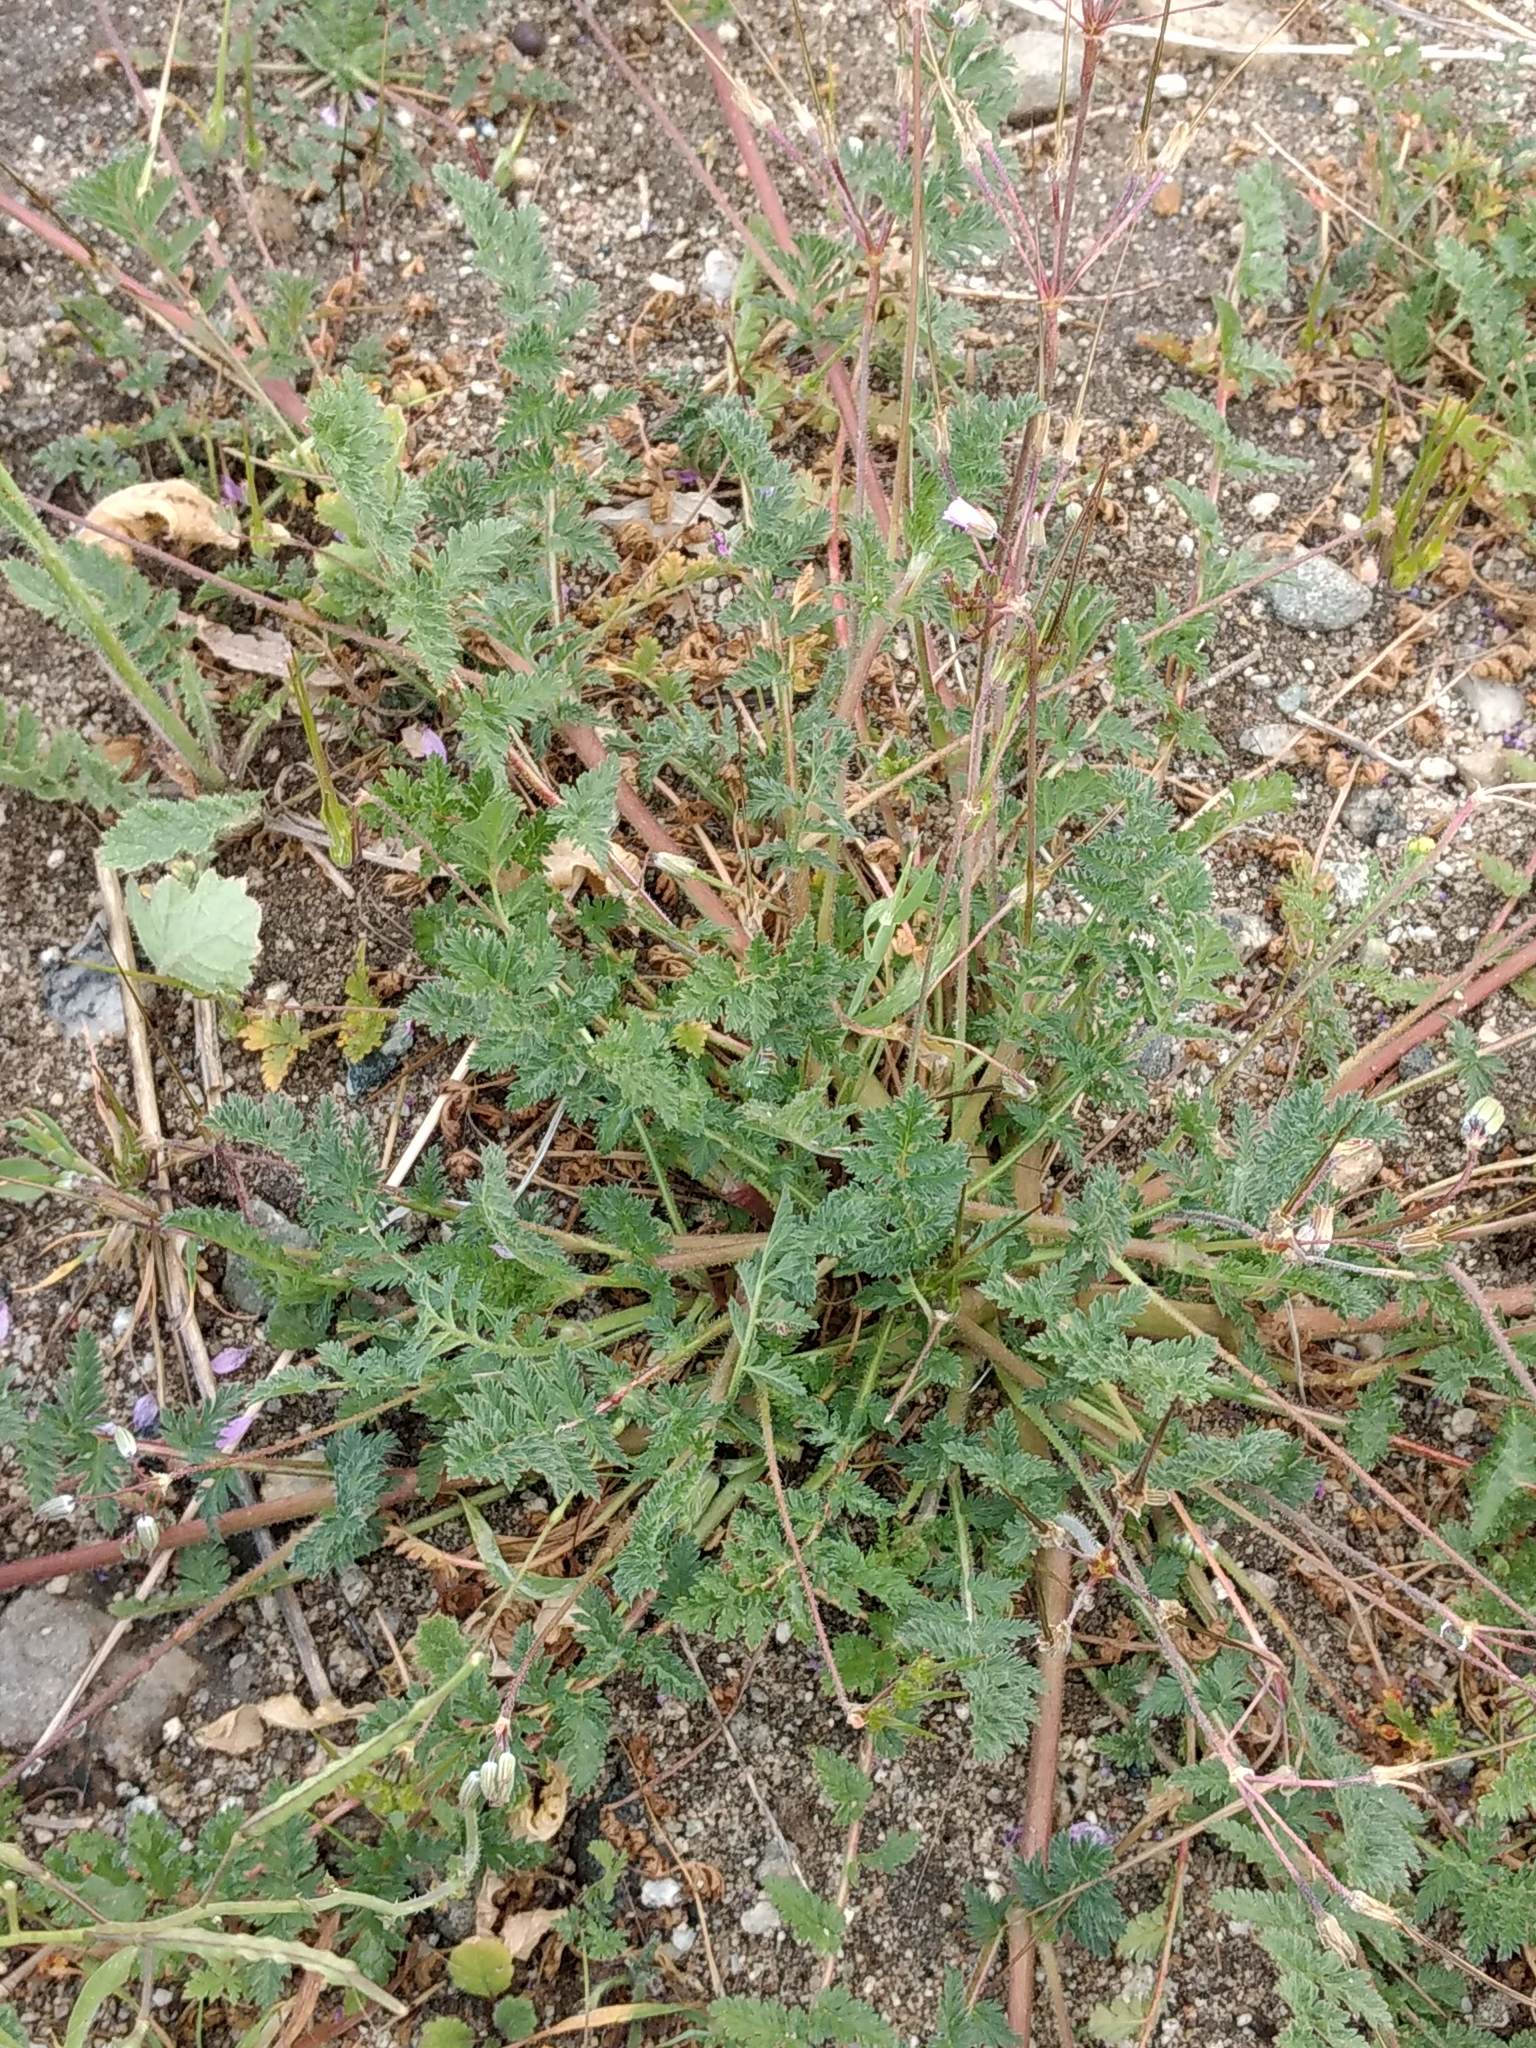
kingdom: Plantae
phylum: Tracheophyta
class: Magnoliopsida
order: Geraniales
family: Geraniaceae
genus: Erodium
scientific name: Erodium cicutarium
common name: Common stork's-bill
